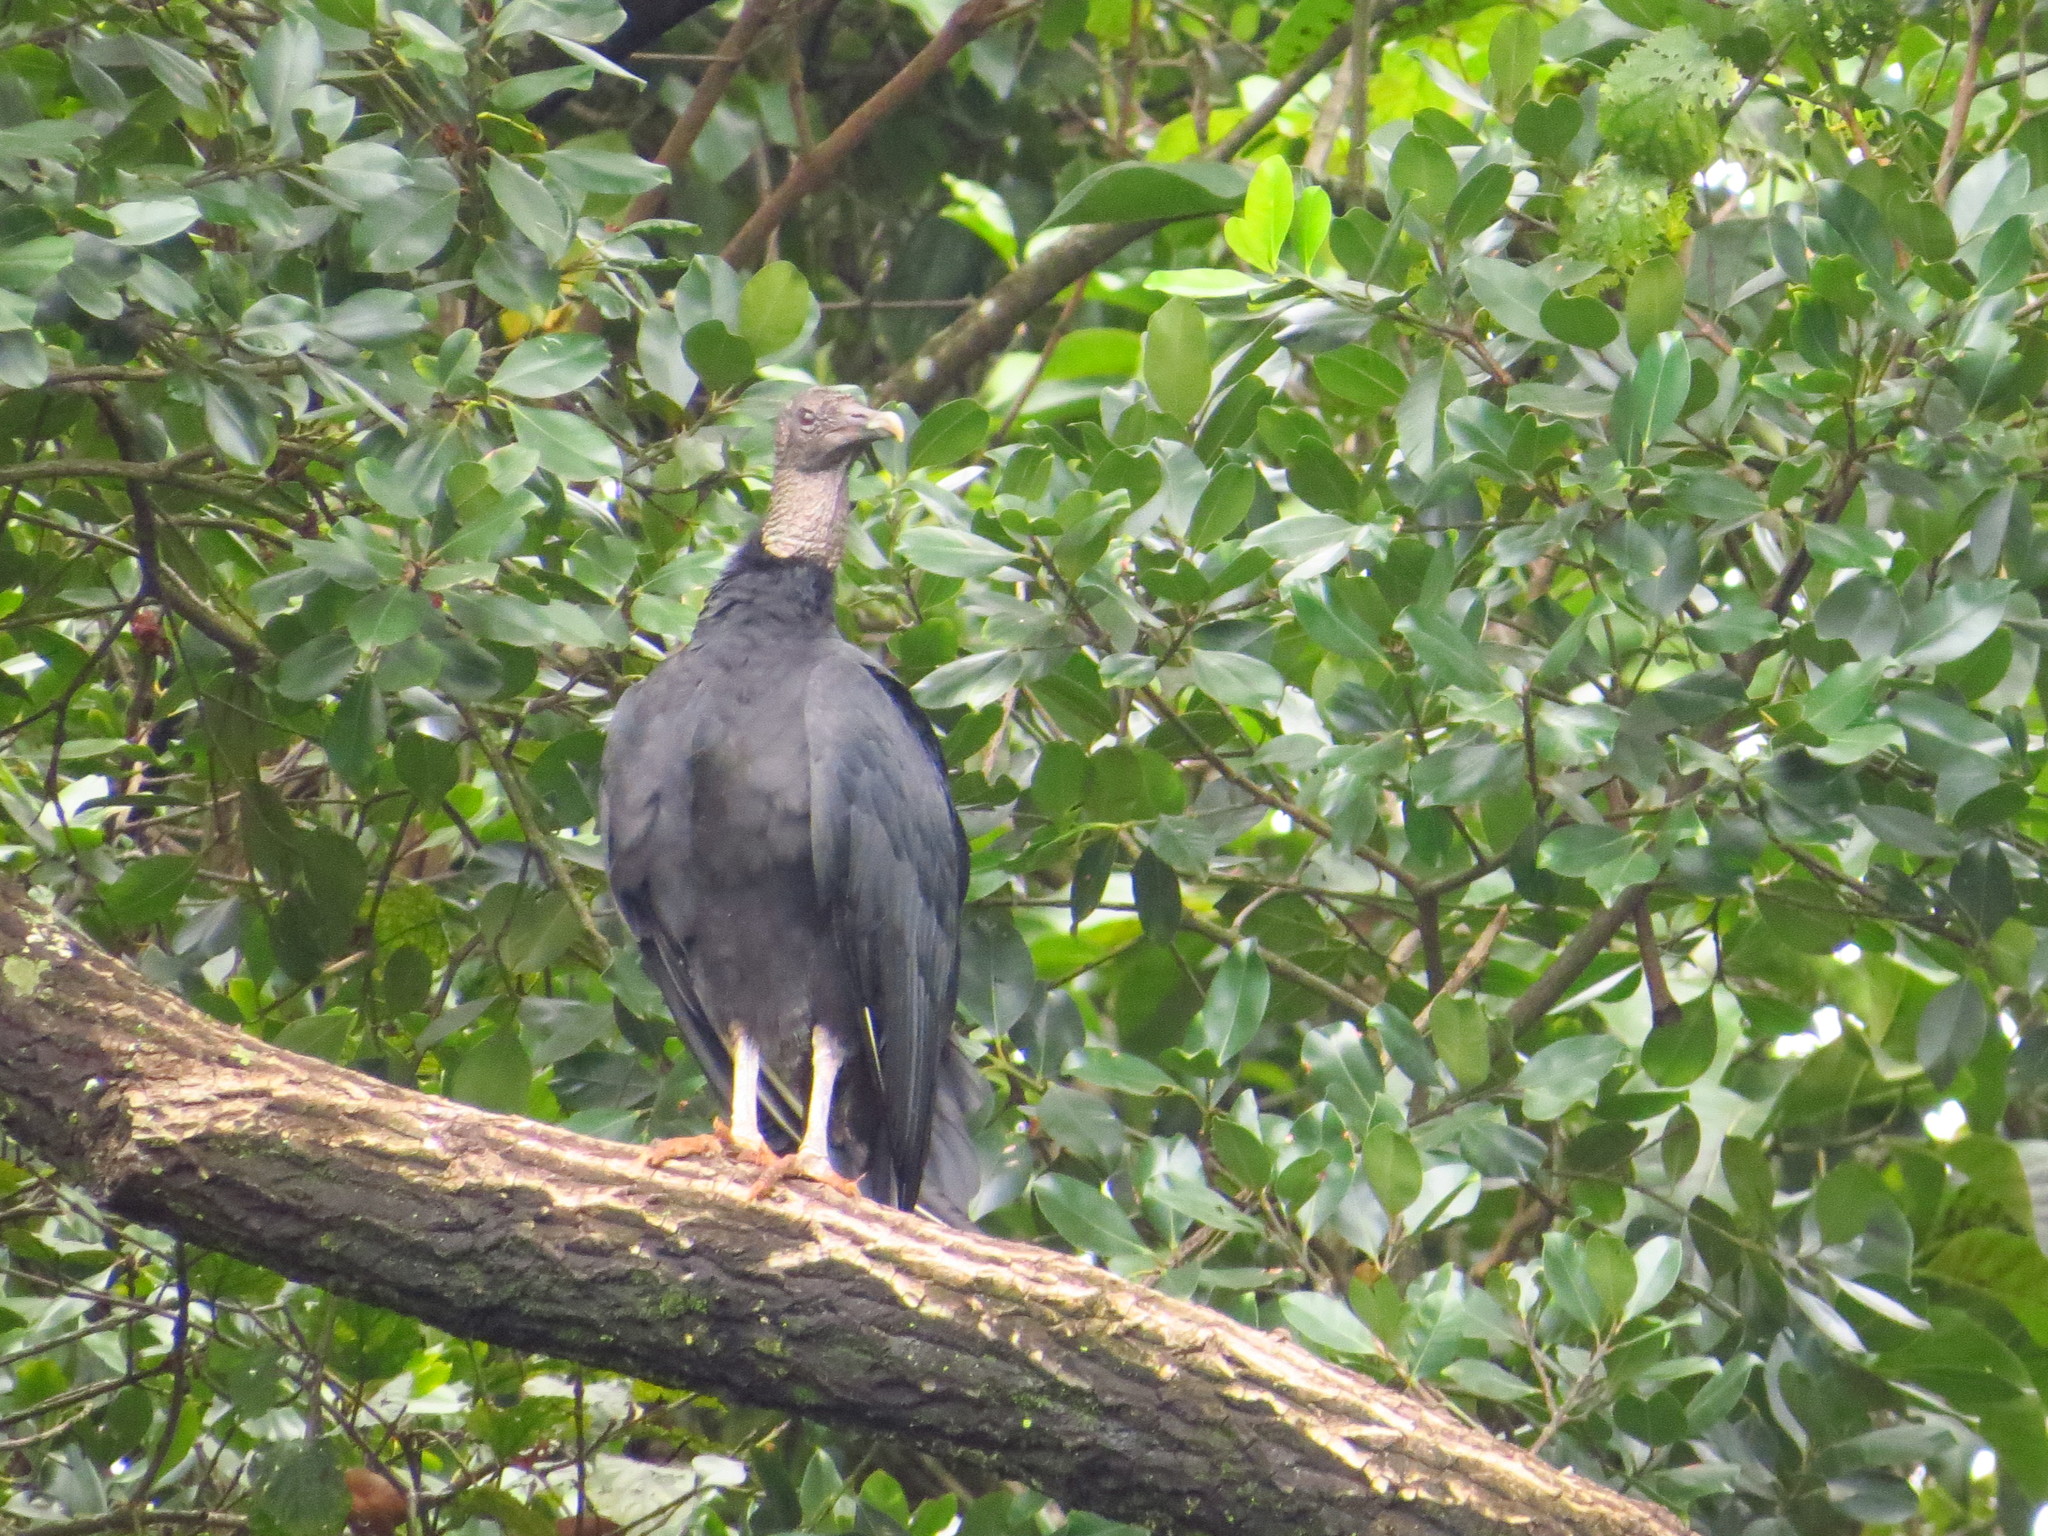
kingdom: Animalia
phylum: Chordata
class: Aves
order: Accipitriformes
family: Cathartidae
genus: Coragyps
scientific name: Coragyps atratus
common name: Black vulture
